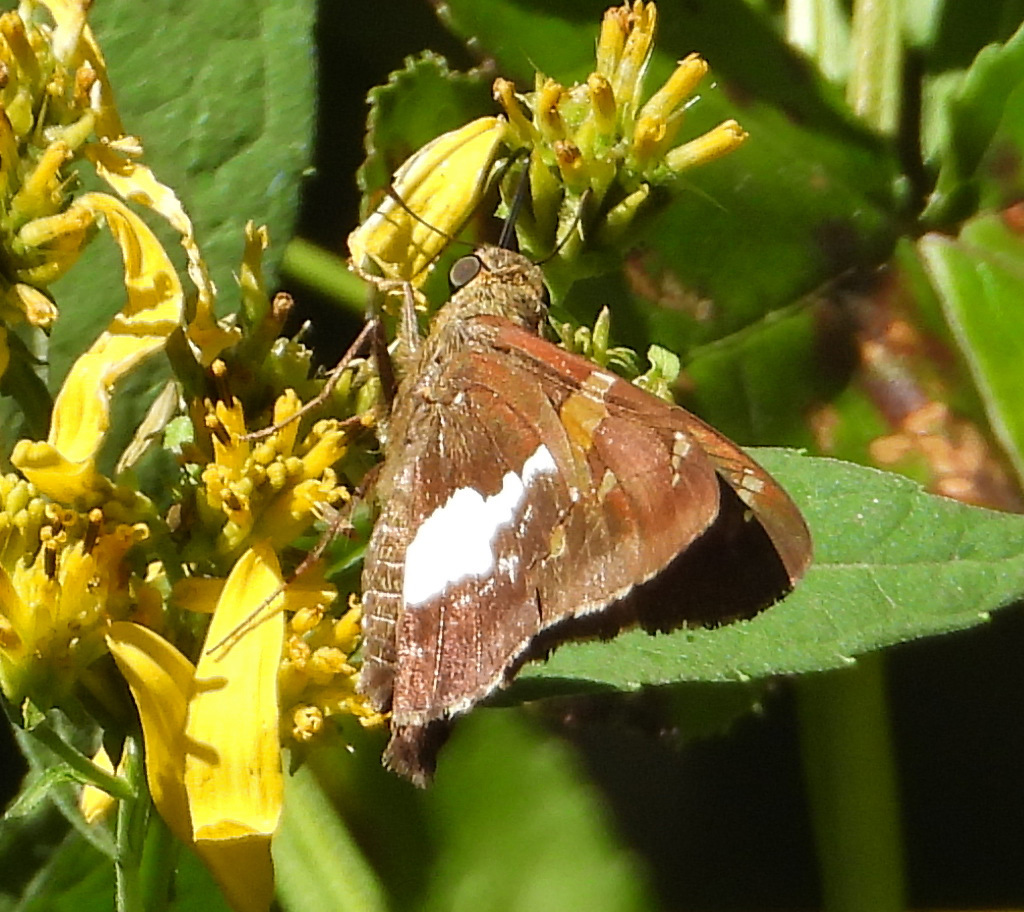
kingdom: Animalia
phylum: Arthropoda
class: Insecta
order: Lepidoptera
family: Hesperiidae
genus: Epargyreus
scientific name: Epargyreus clarus
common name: Silver-spotted skipper
